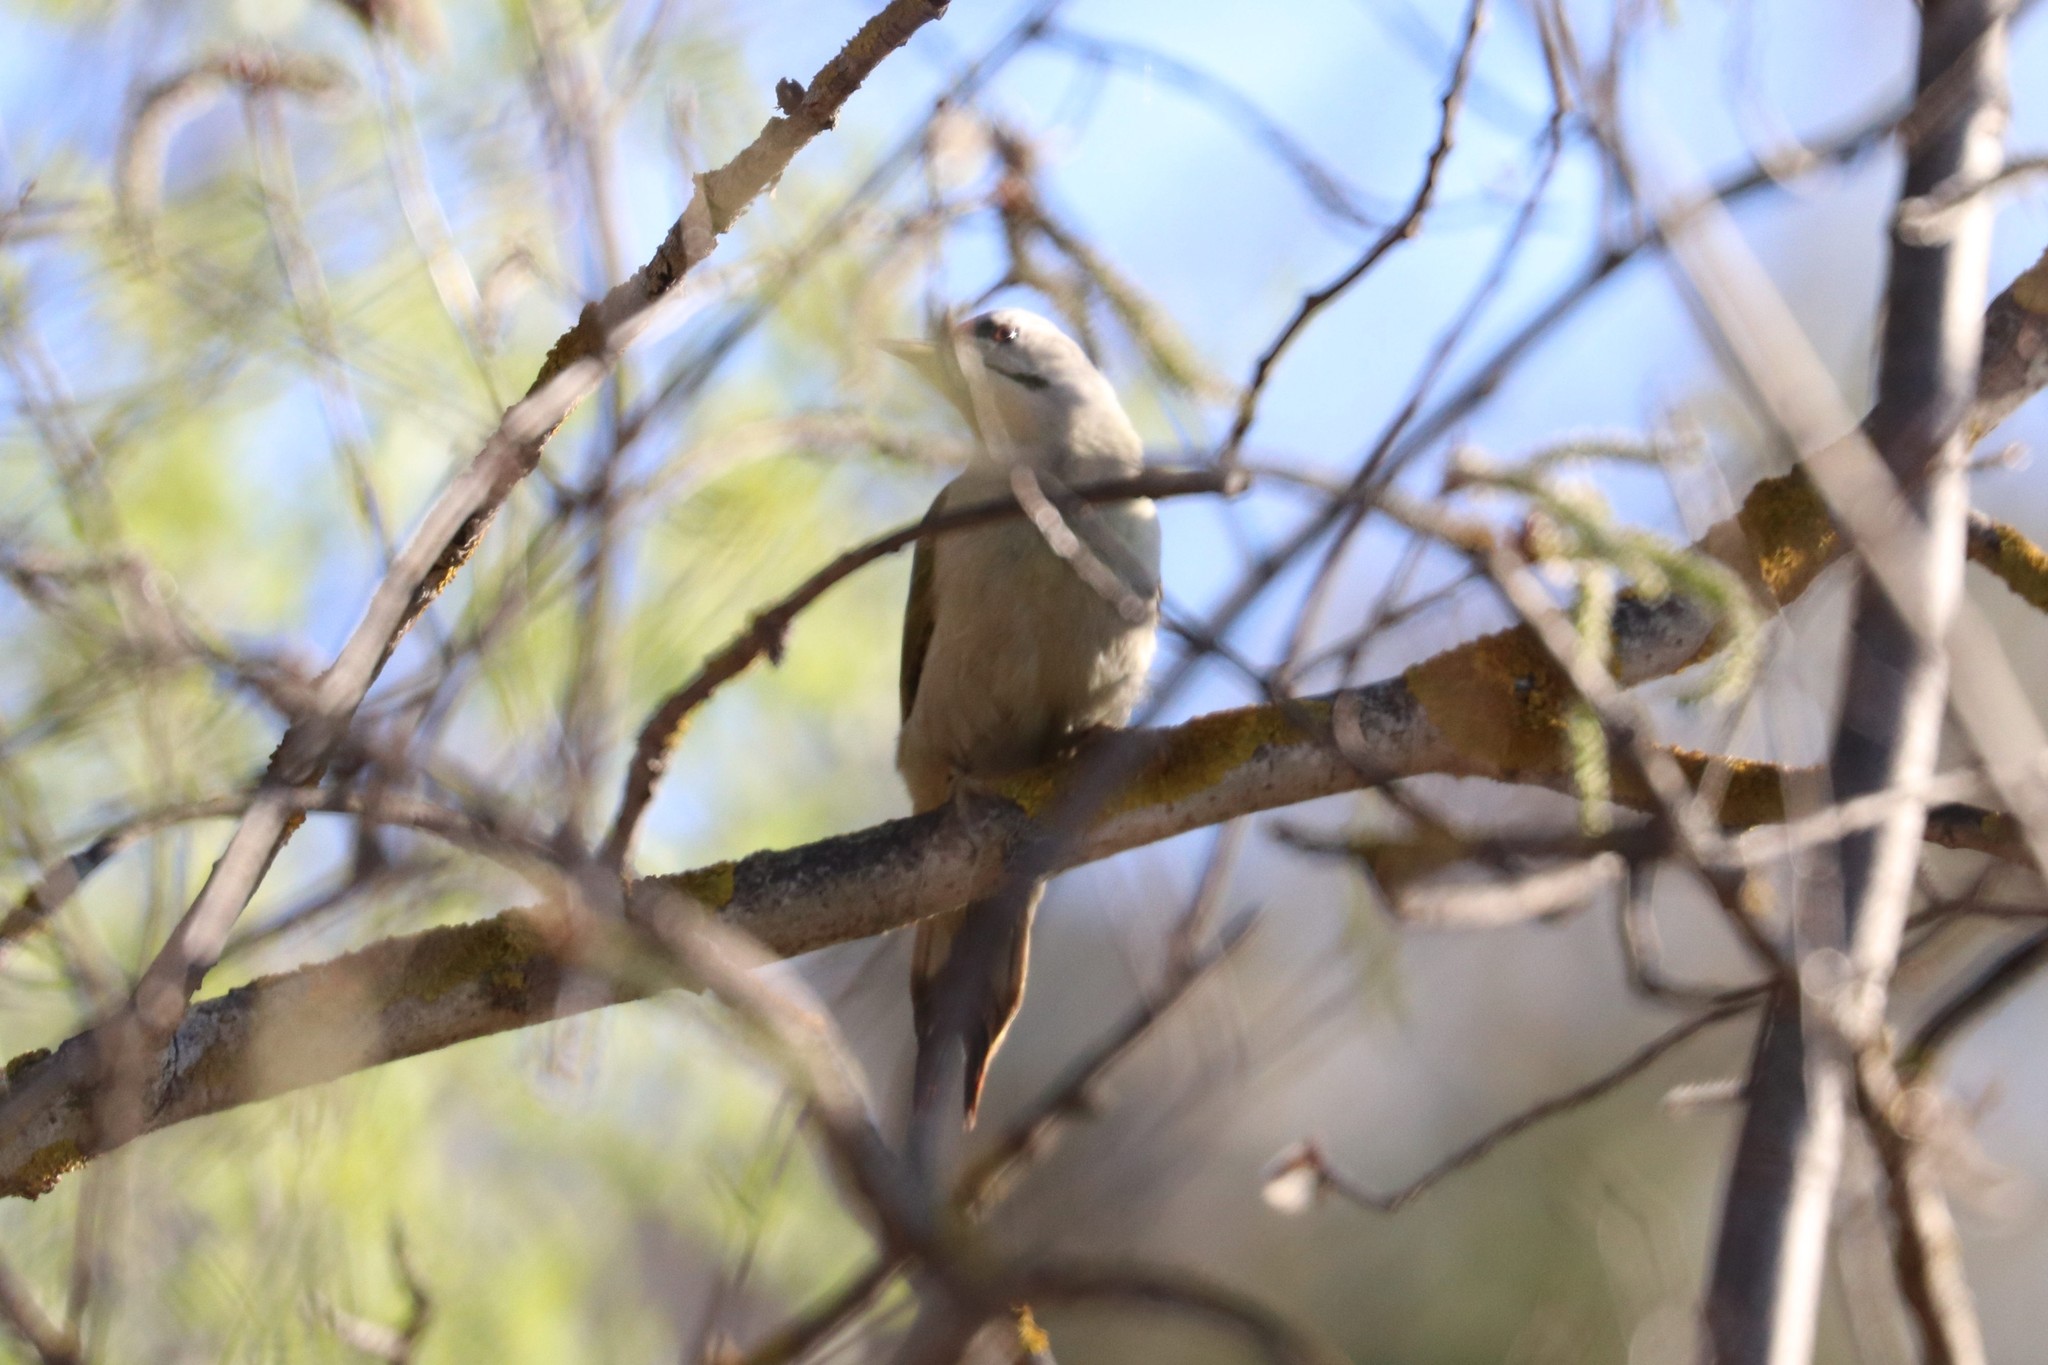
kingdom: Animalia
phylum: Chordata
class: Aves
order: Piciformes
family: Picidae
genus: Picus
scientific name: Picus canus
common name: Grey-headed woodpecker
